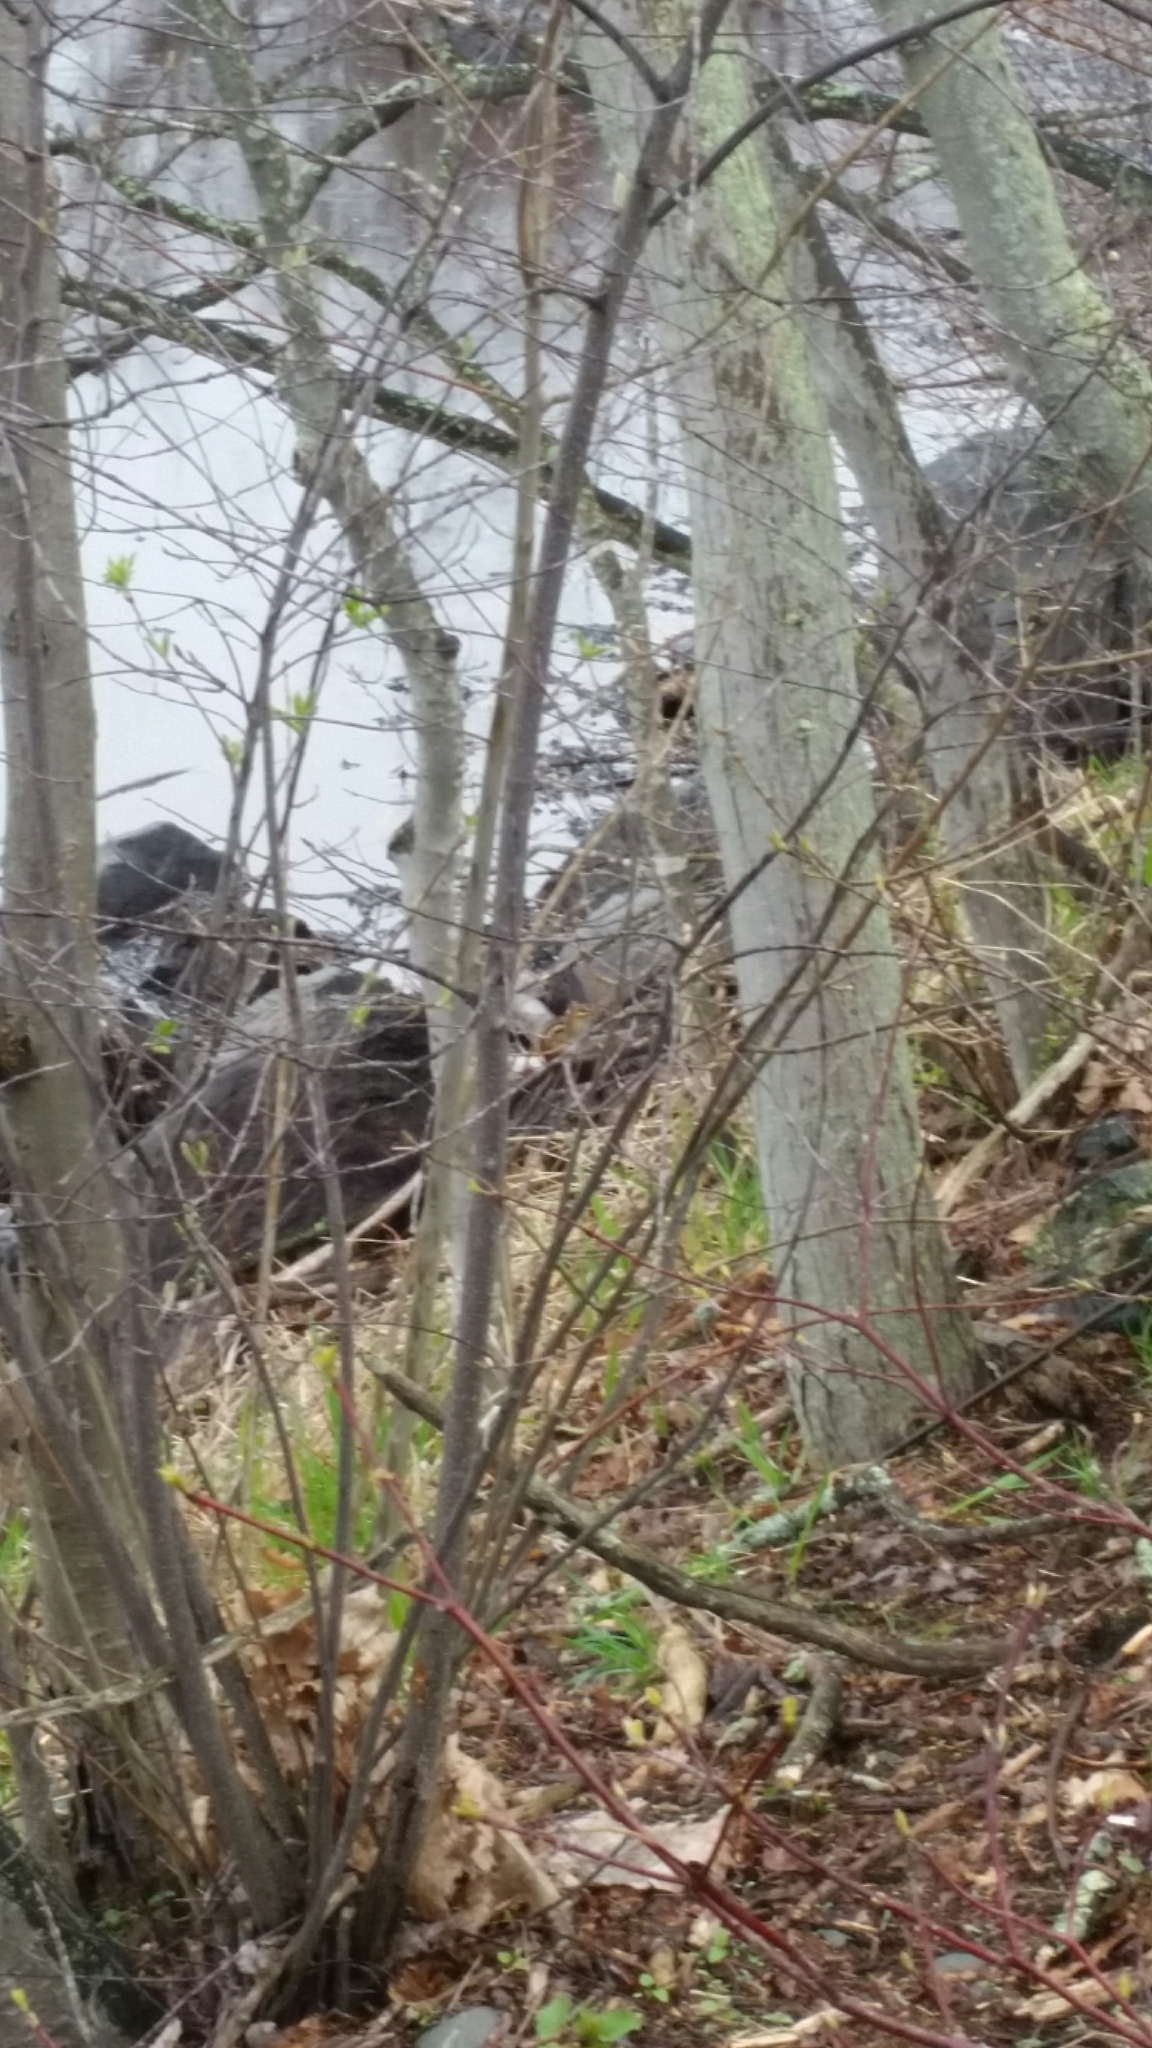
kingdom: Animalia
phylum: Chordata
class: Mammalia
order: Rodentia
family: Sciuridae
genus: Tamias
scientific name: Tamias striatus
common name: Eastern chipmunk
